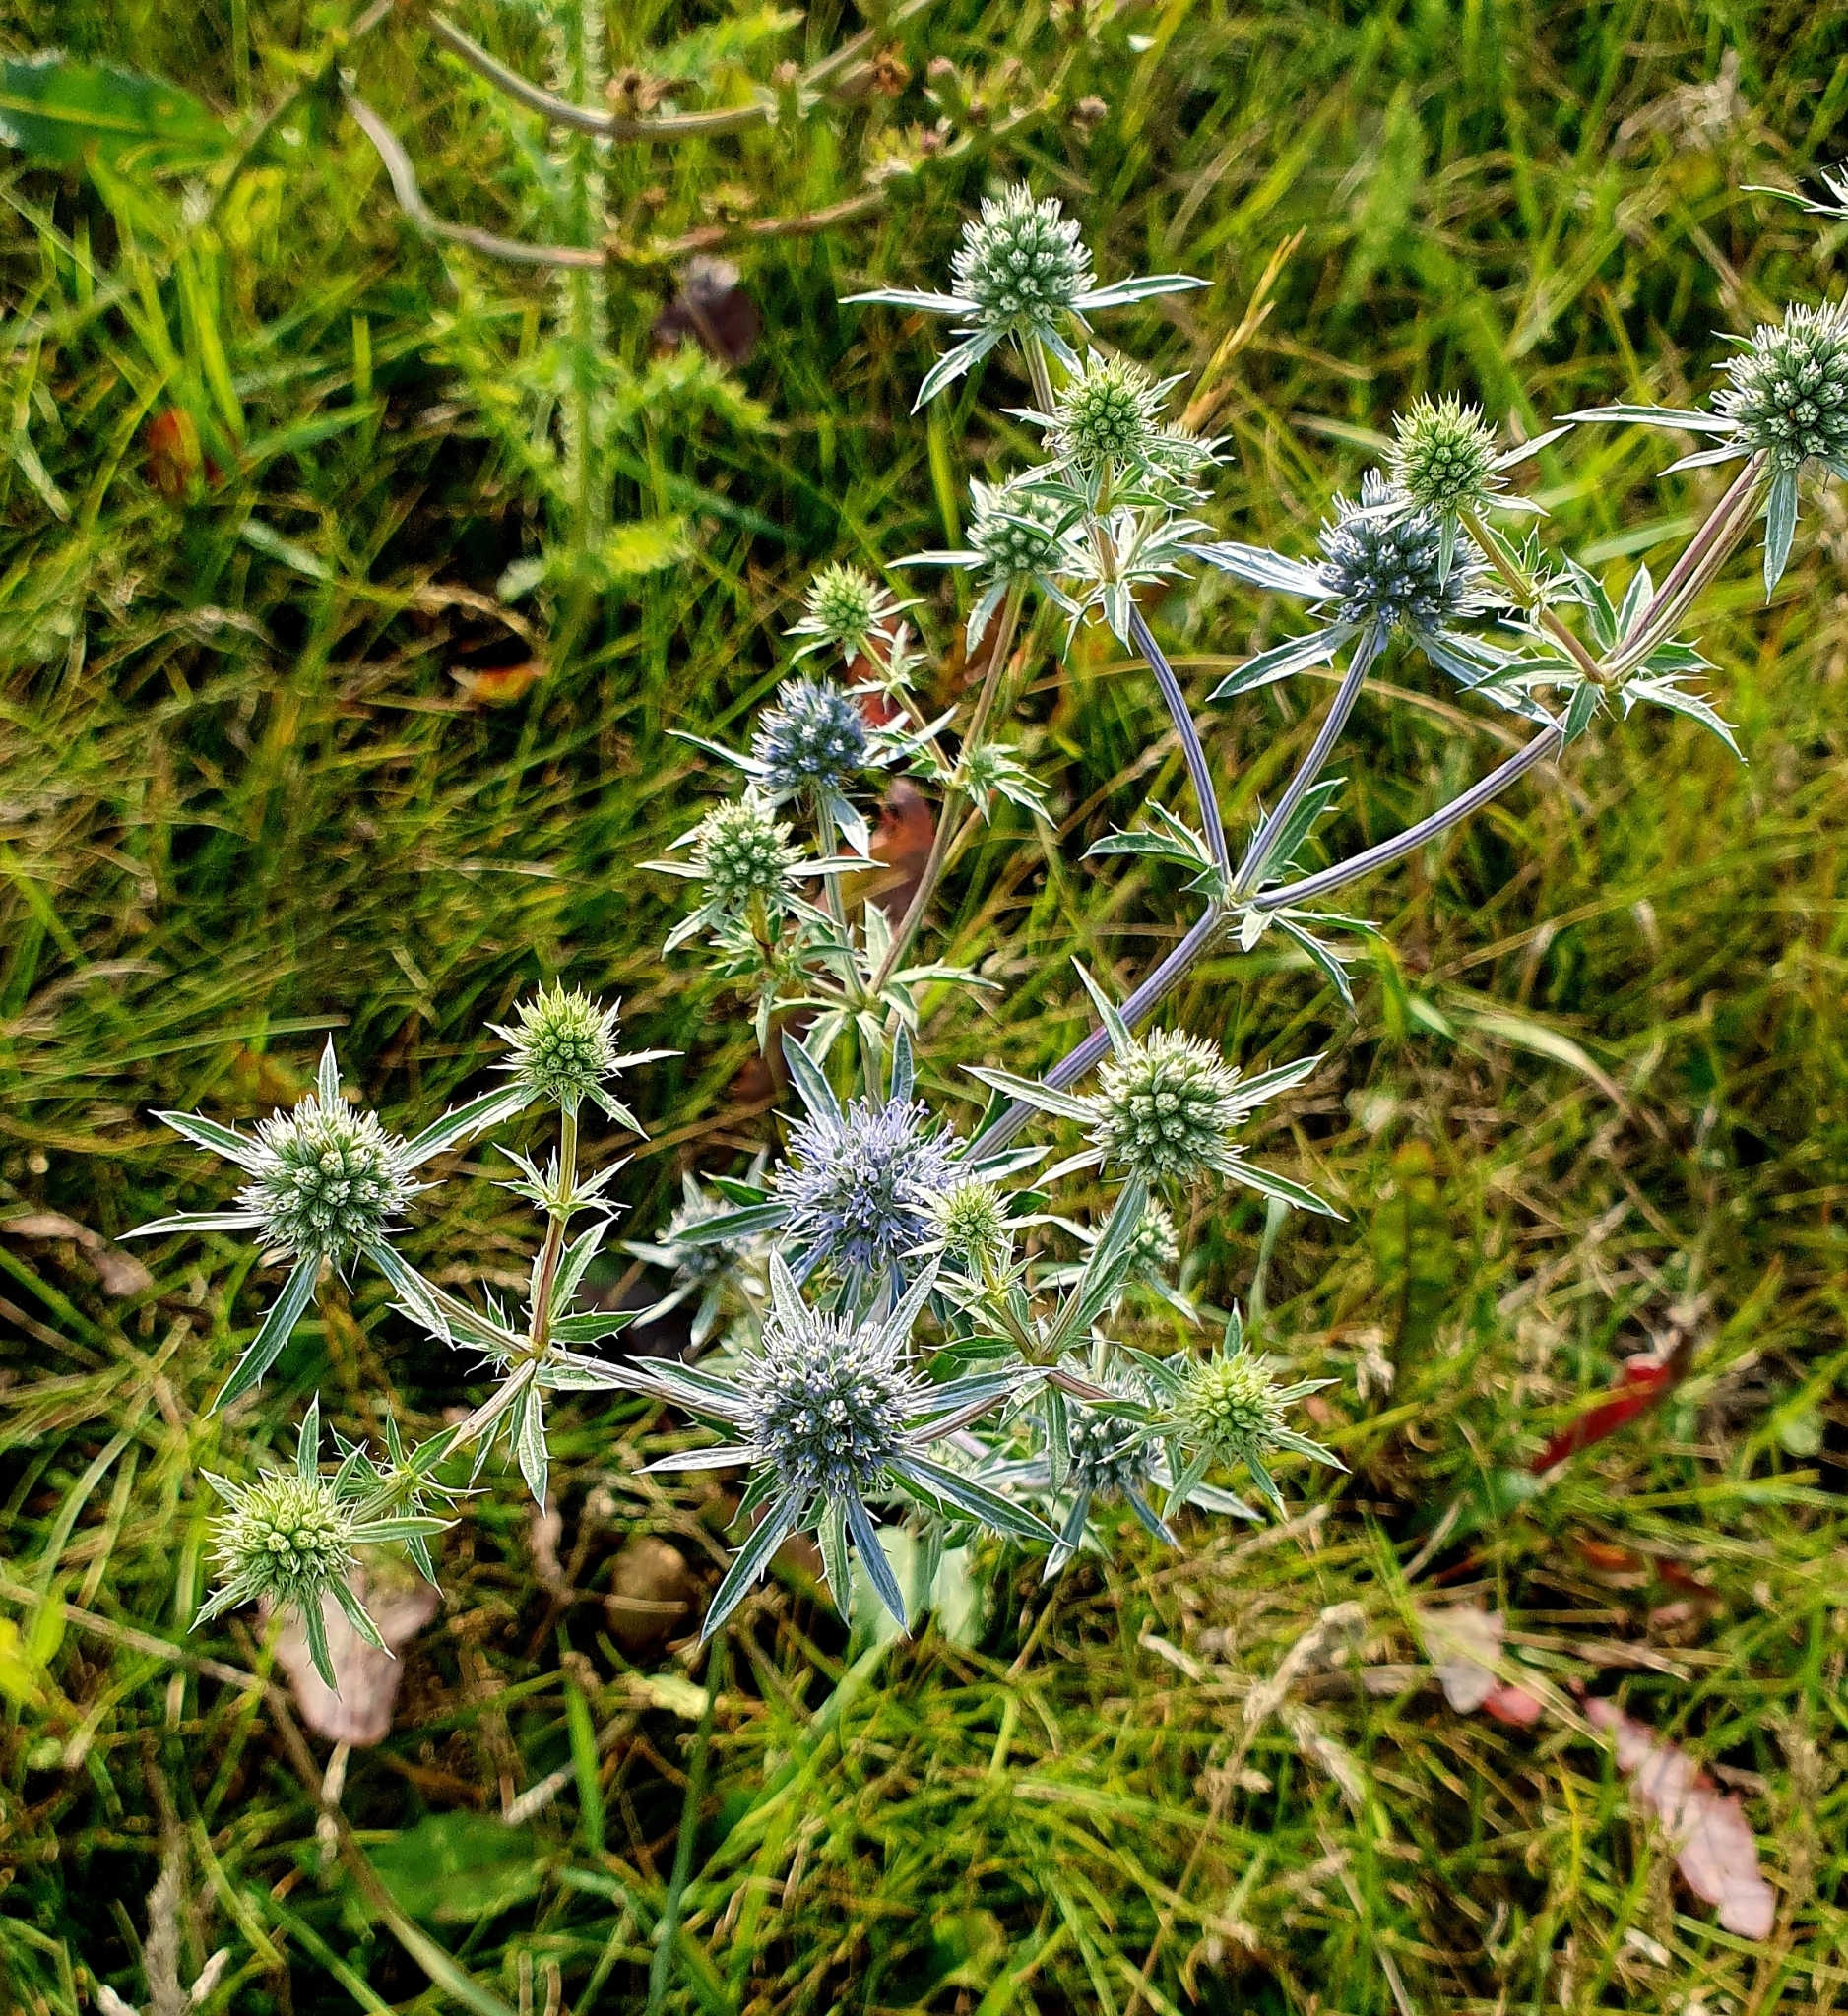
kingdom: Plantae
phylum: Tracheophyta
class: Magnoliopsida
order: Apiales
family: Apiaceae
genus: Eryngium
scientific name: Eryngium planum
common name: Blue eryngo
